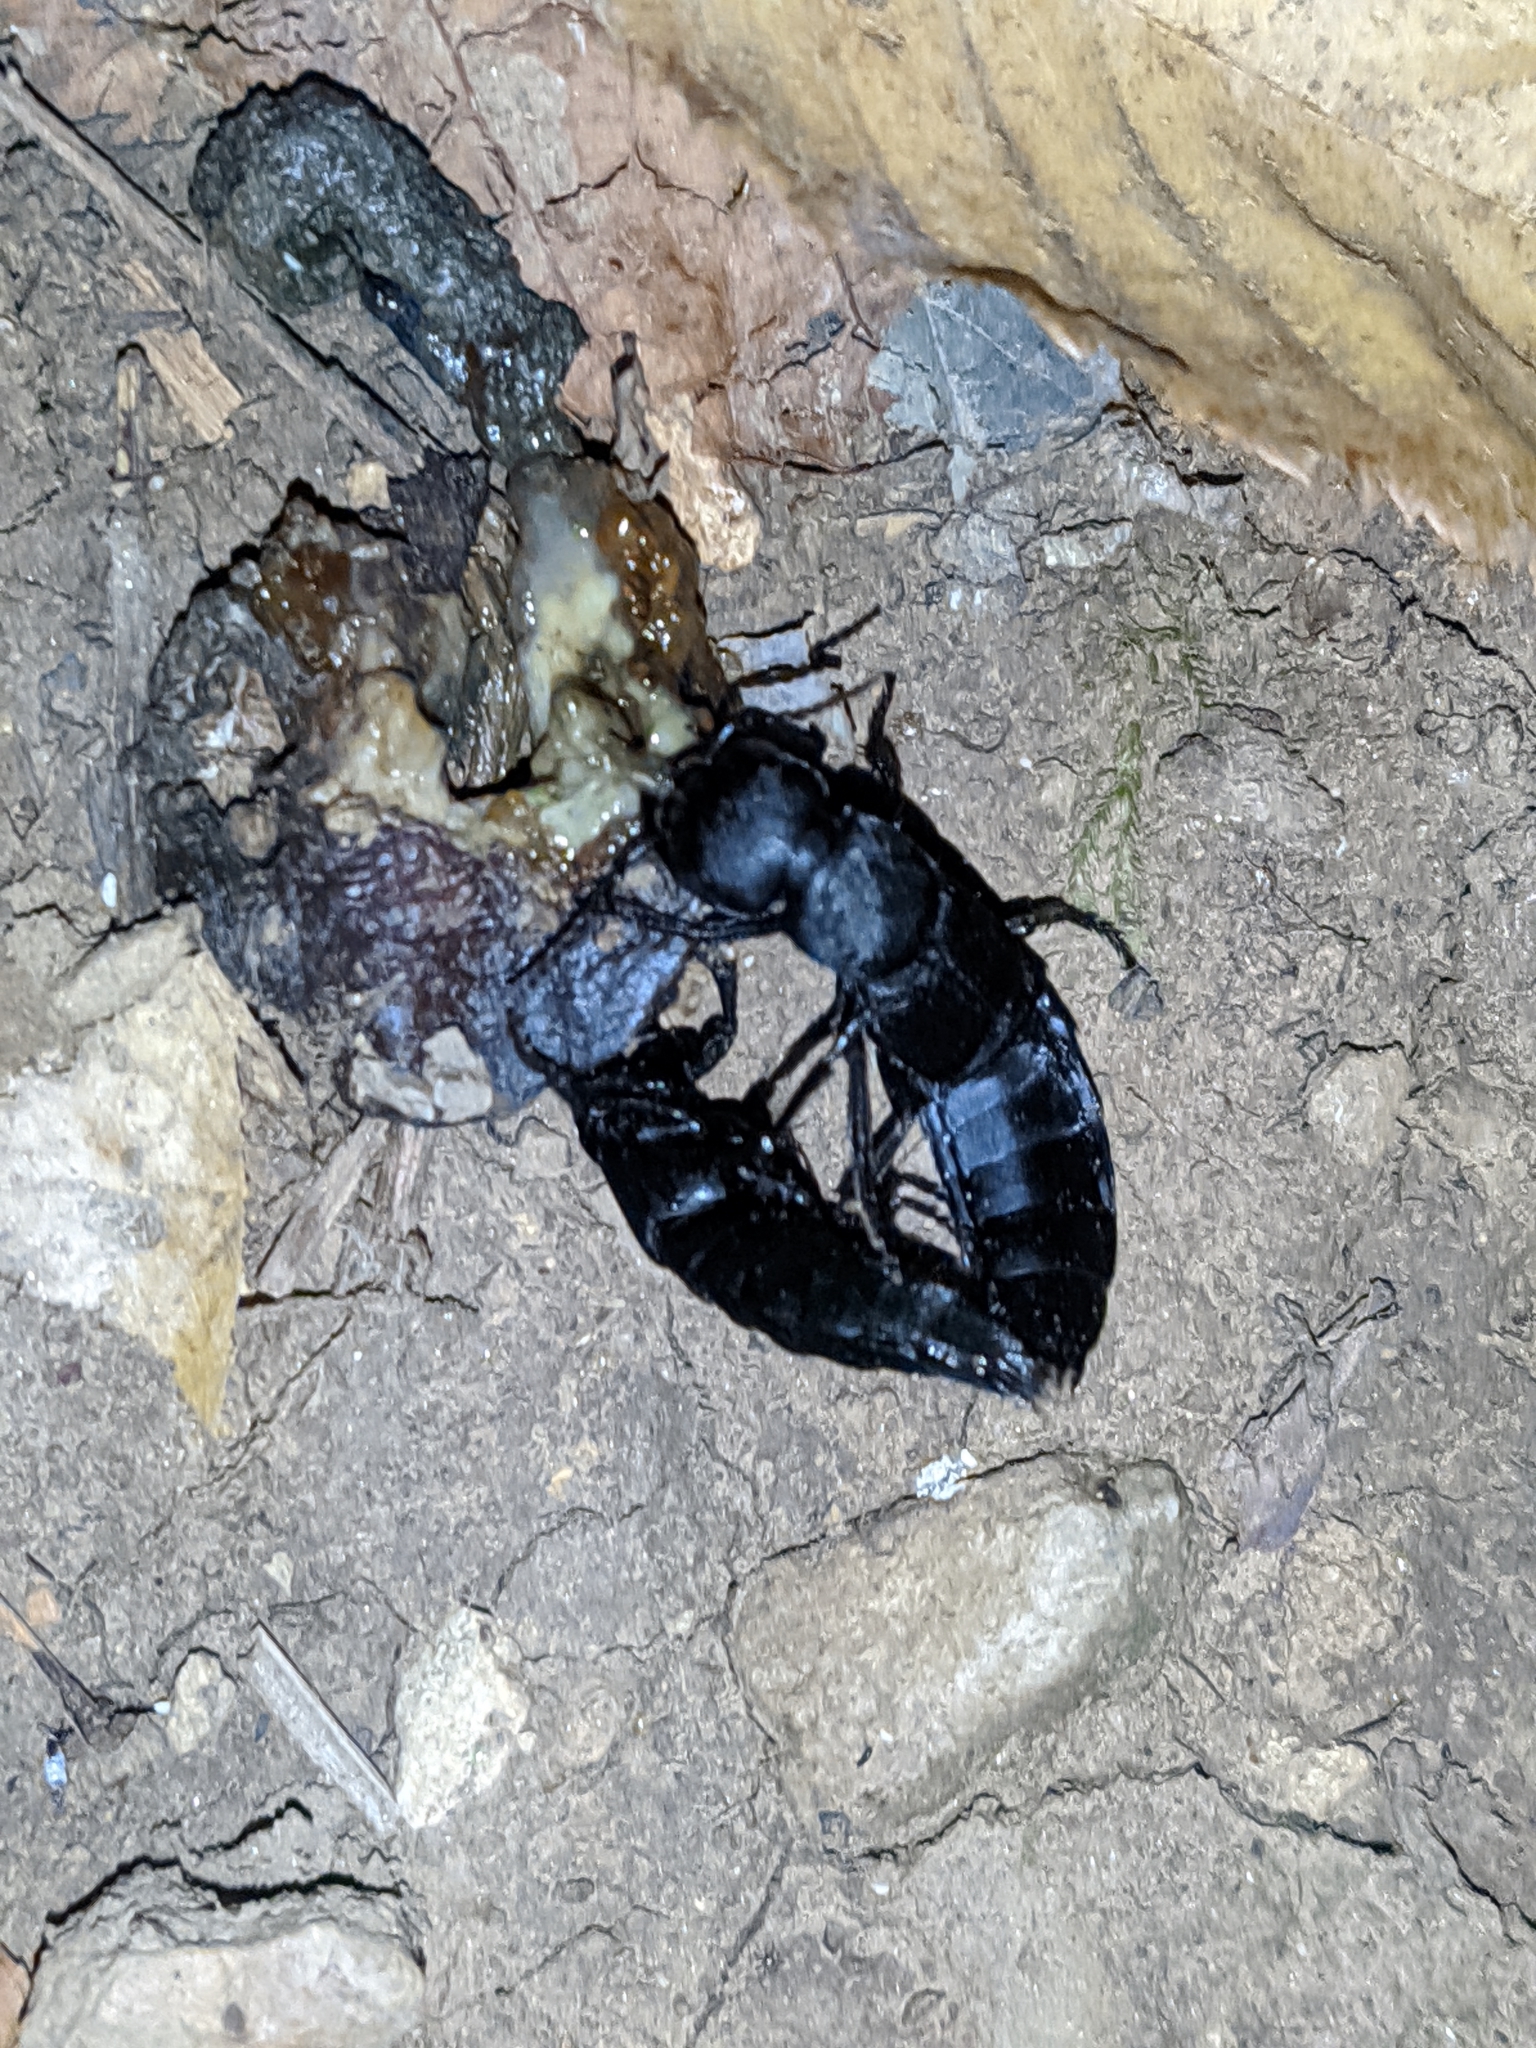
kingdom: Animalia
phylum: Arthropoda
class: Insecta
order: Coleoptera
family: Staphylinidae
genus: Ocypus
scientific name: Ocypus olens
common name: Devil's coach-horse
